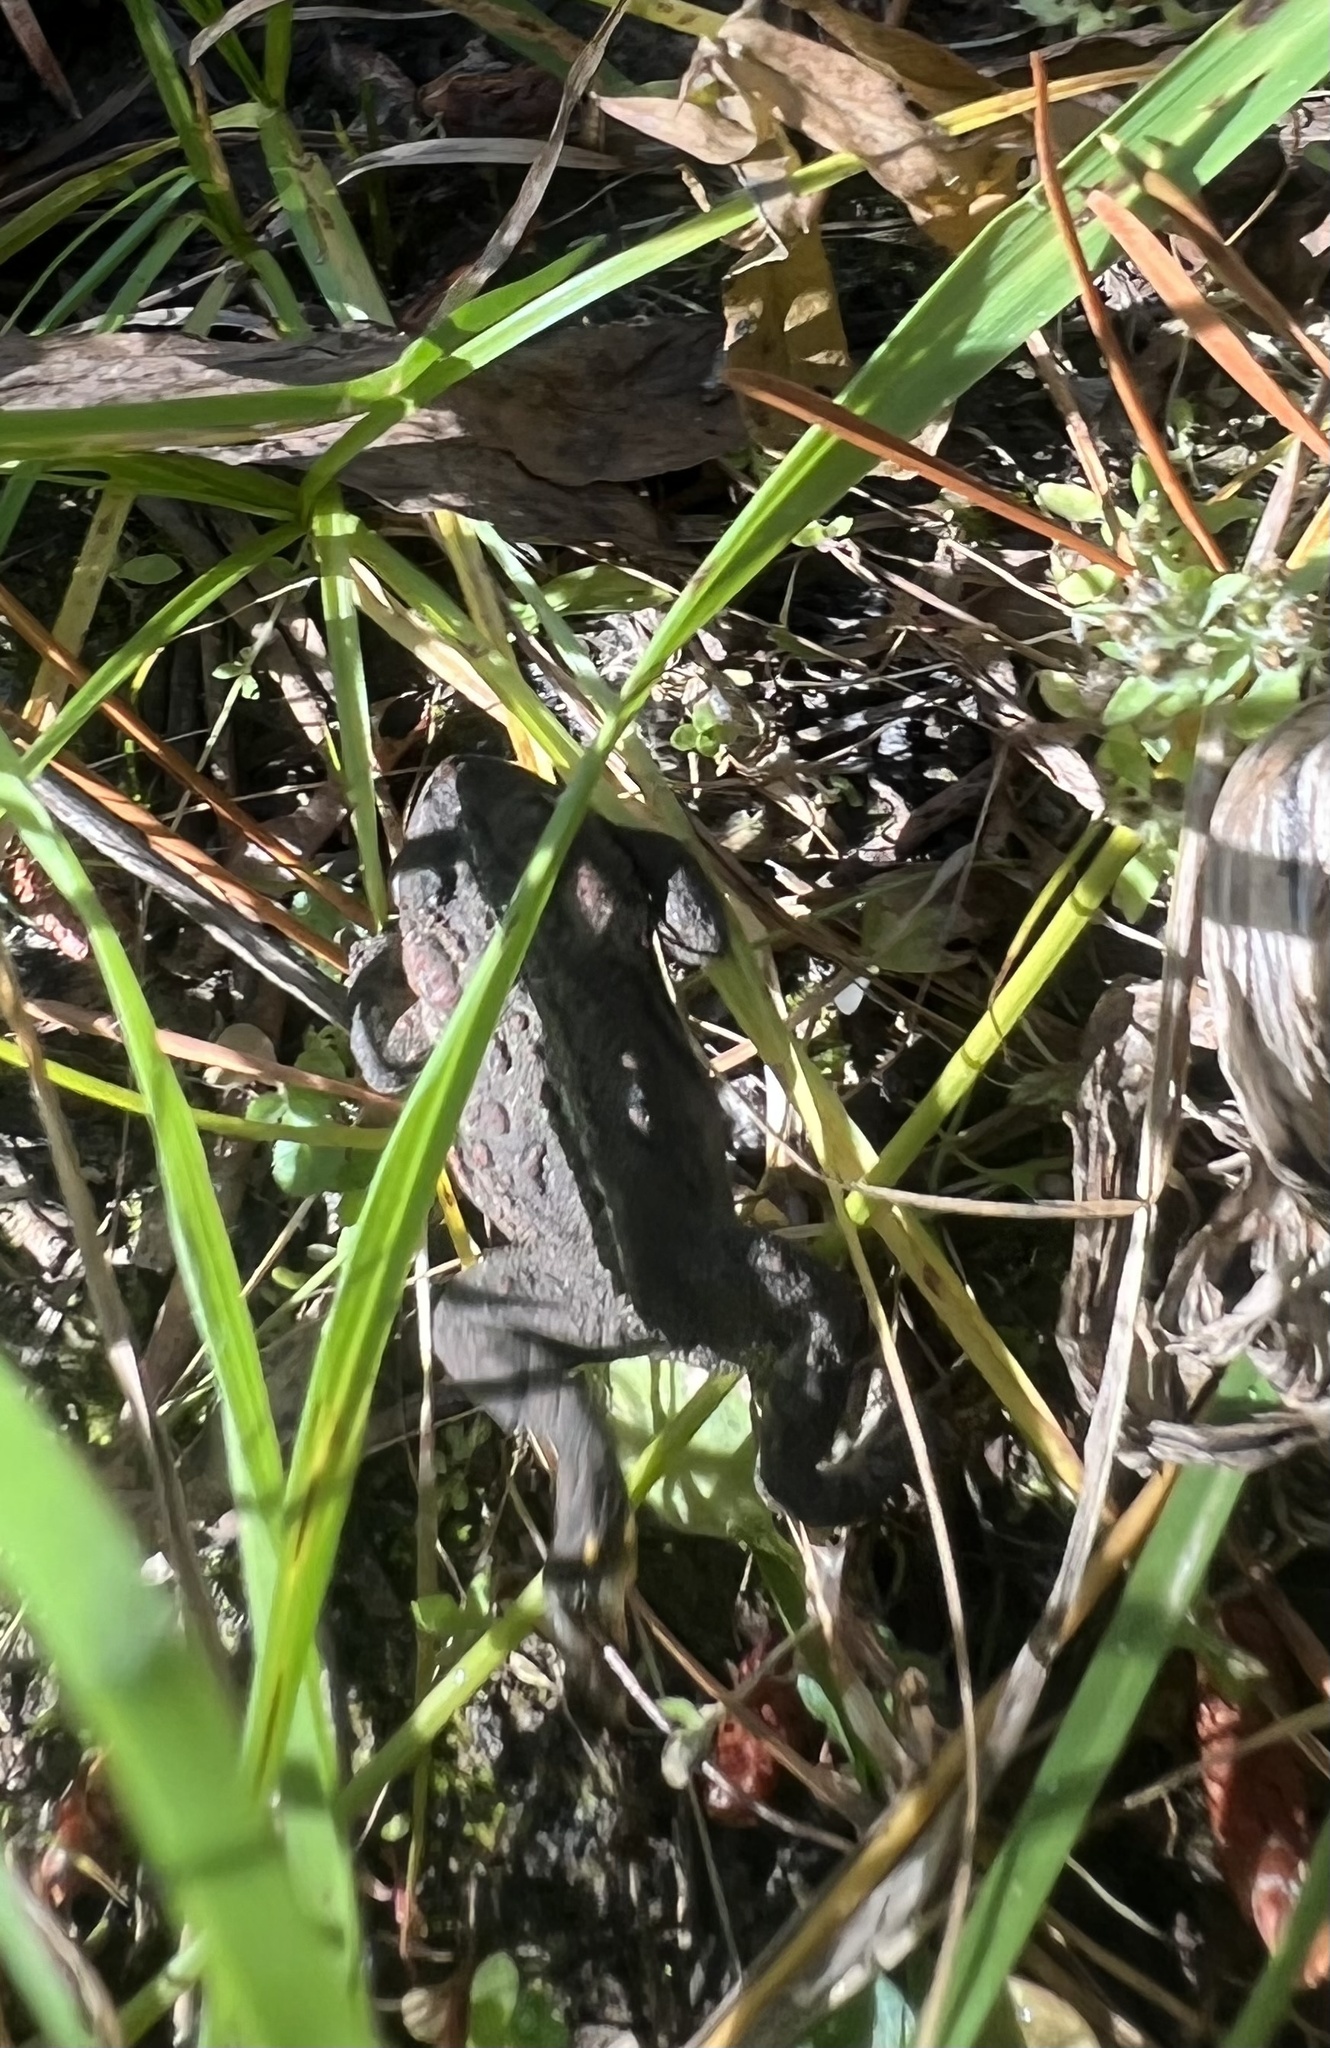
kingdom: Animalia
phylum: Chordata
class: Amphibia
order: Anura
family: Bufonidae
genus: Anaxyrus
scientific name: Anaxyrus boreas
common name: Western toad
